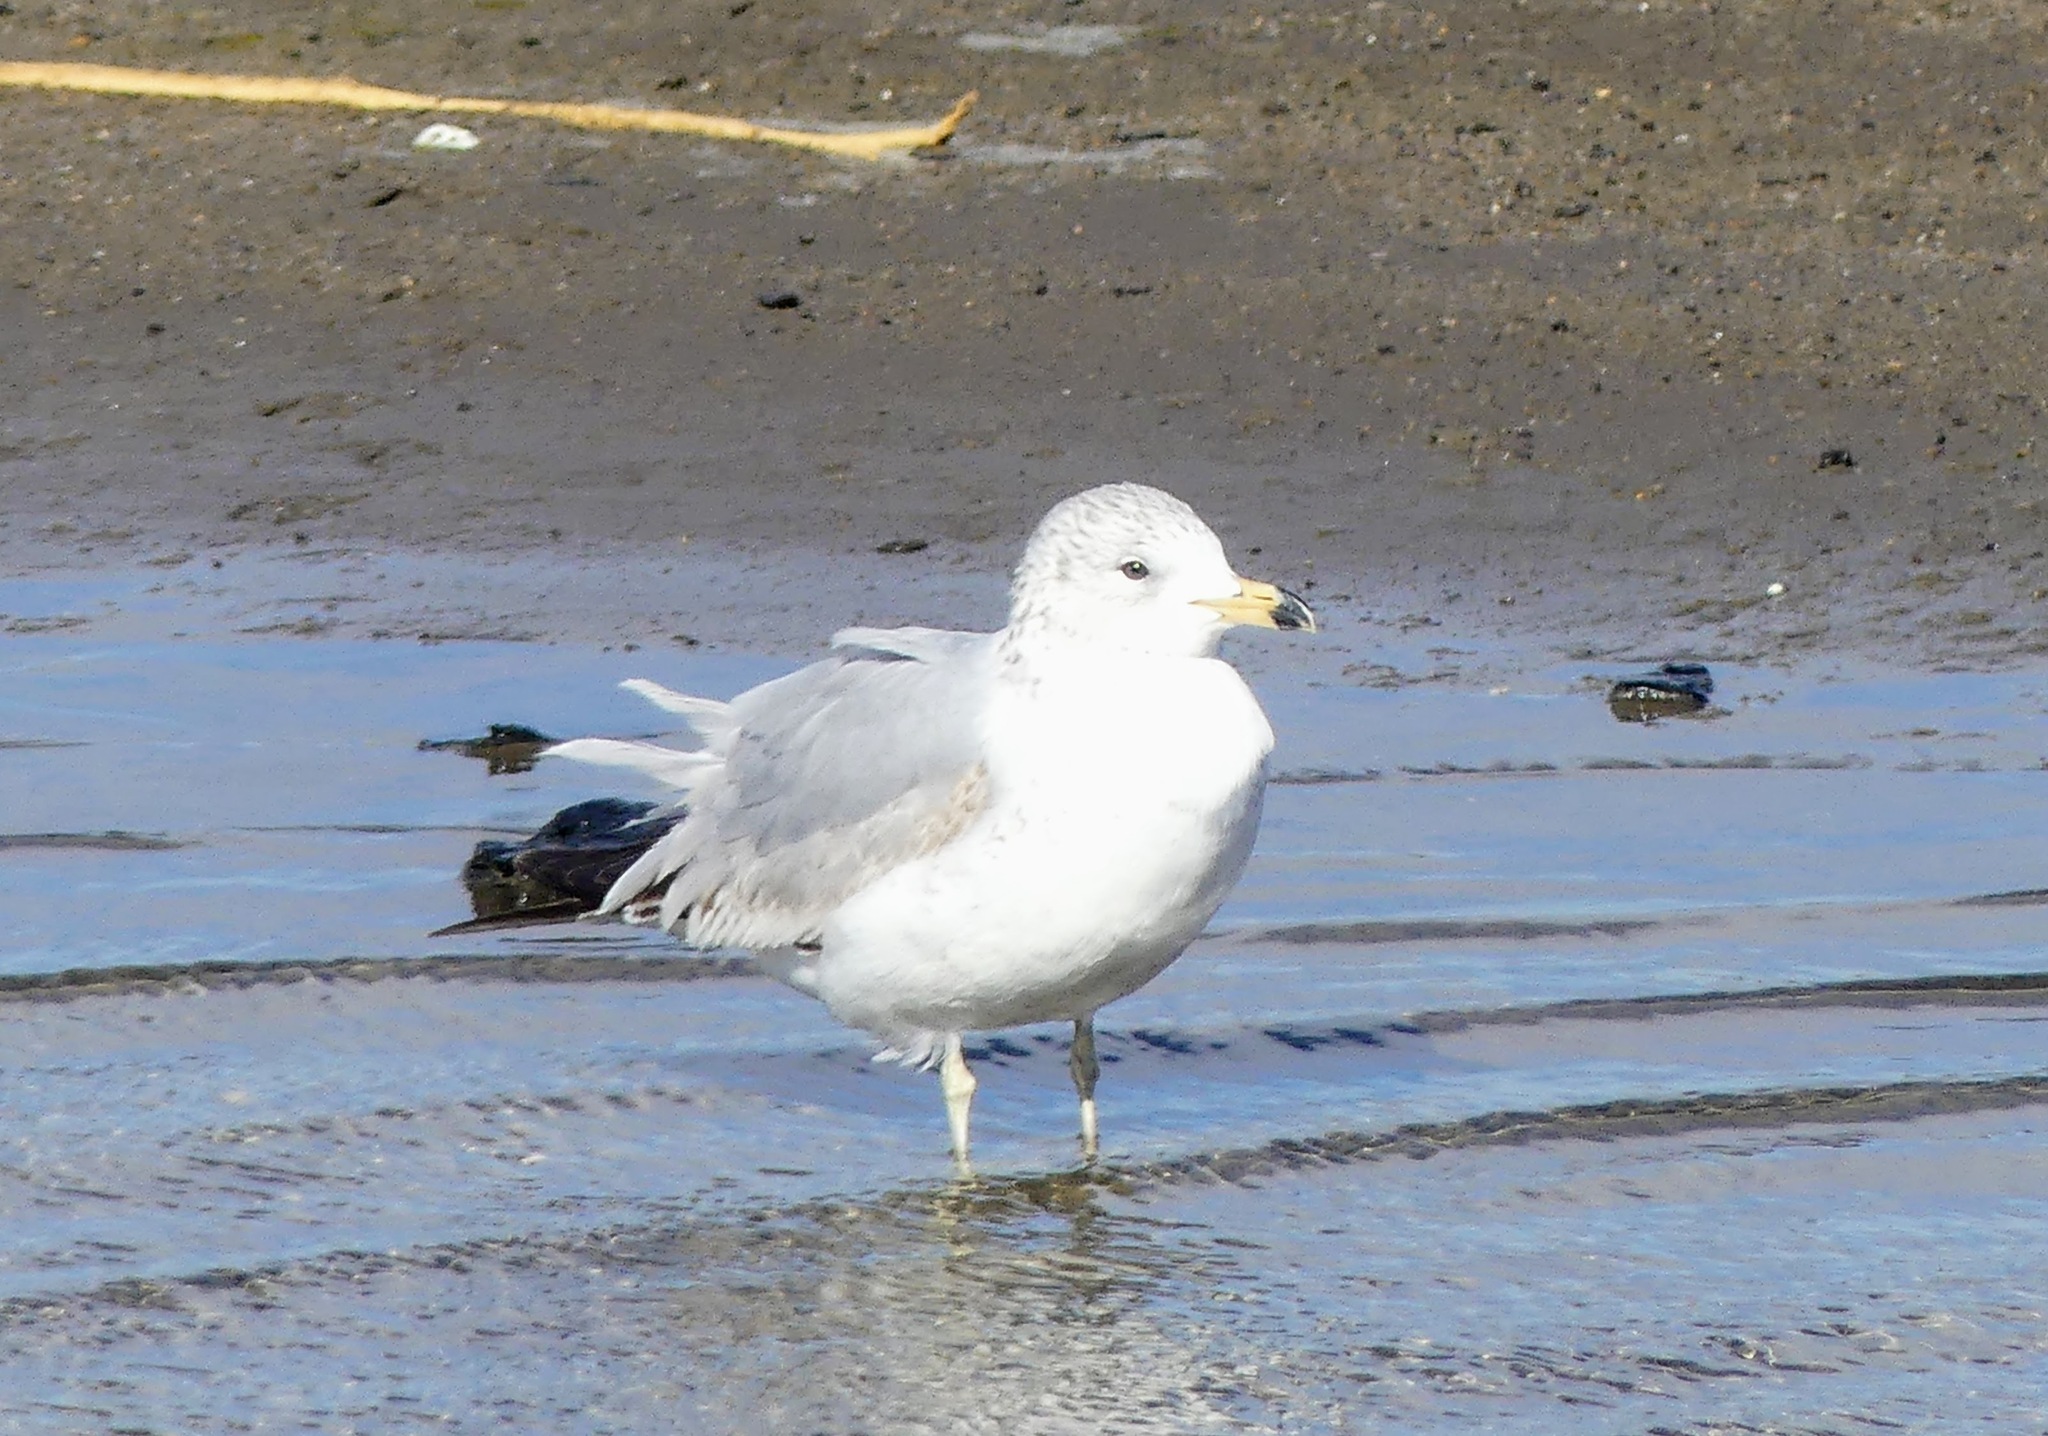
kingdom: Animalia
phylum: Chordata
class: Aves
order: Charadriiformes
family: Laridae
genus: Larus
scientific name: Larus delawarensis
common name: Ring-billed gull
